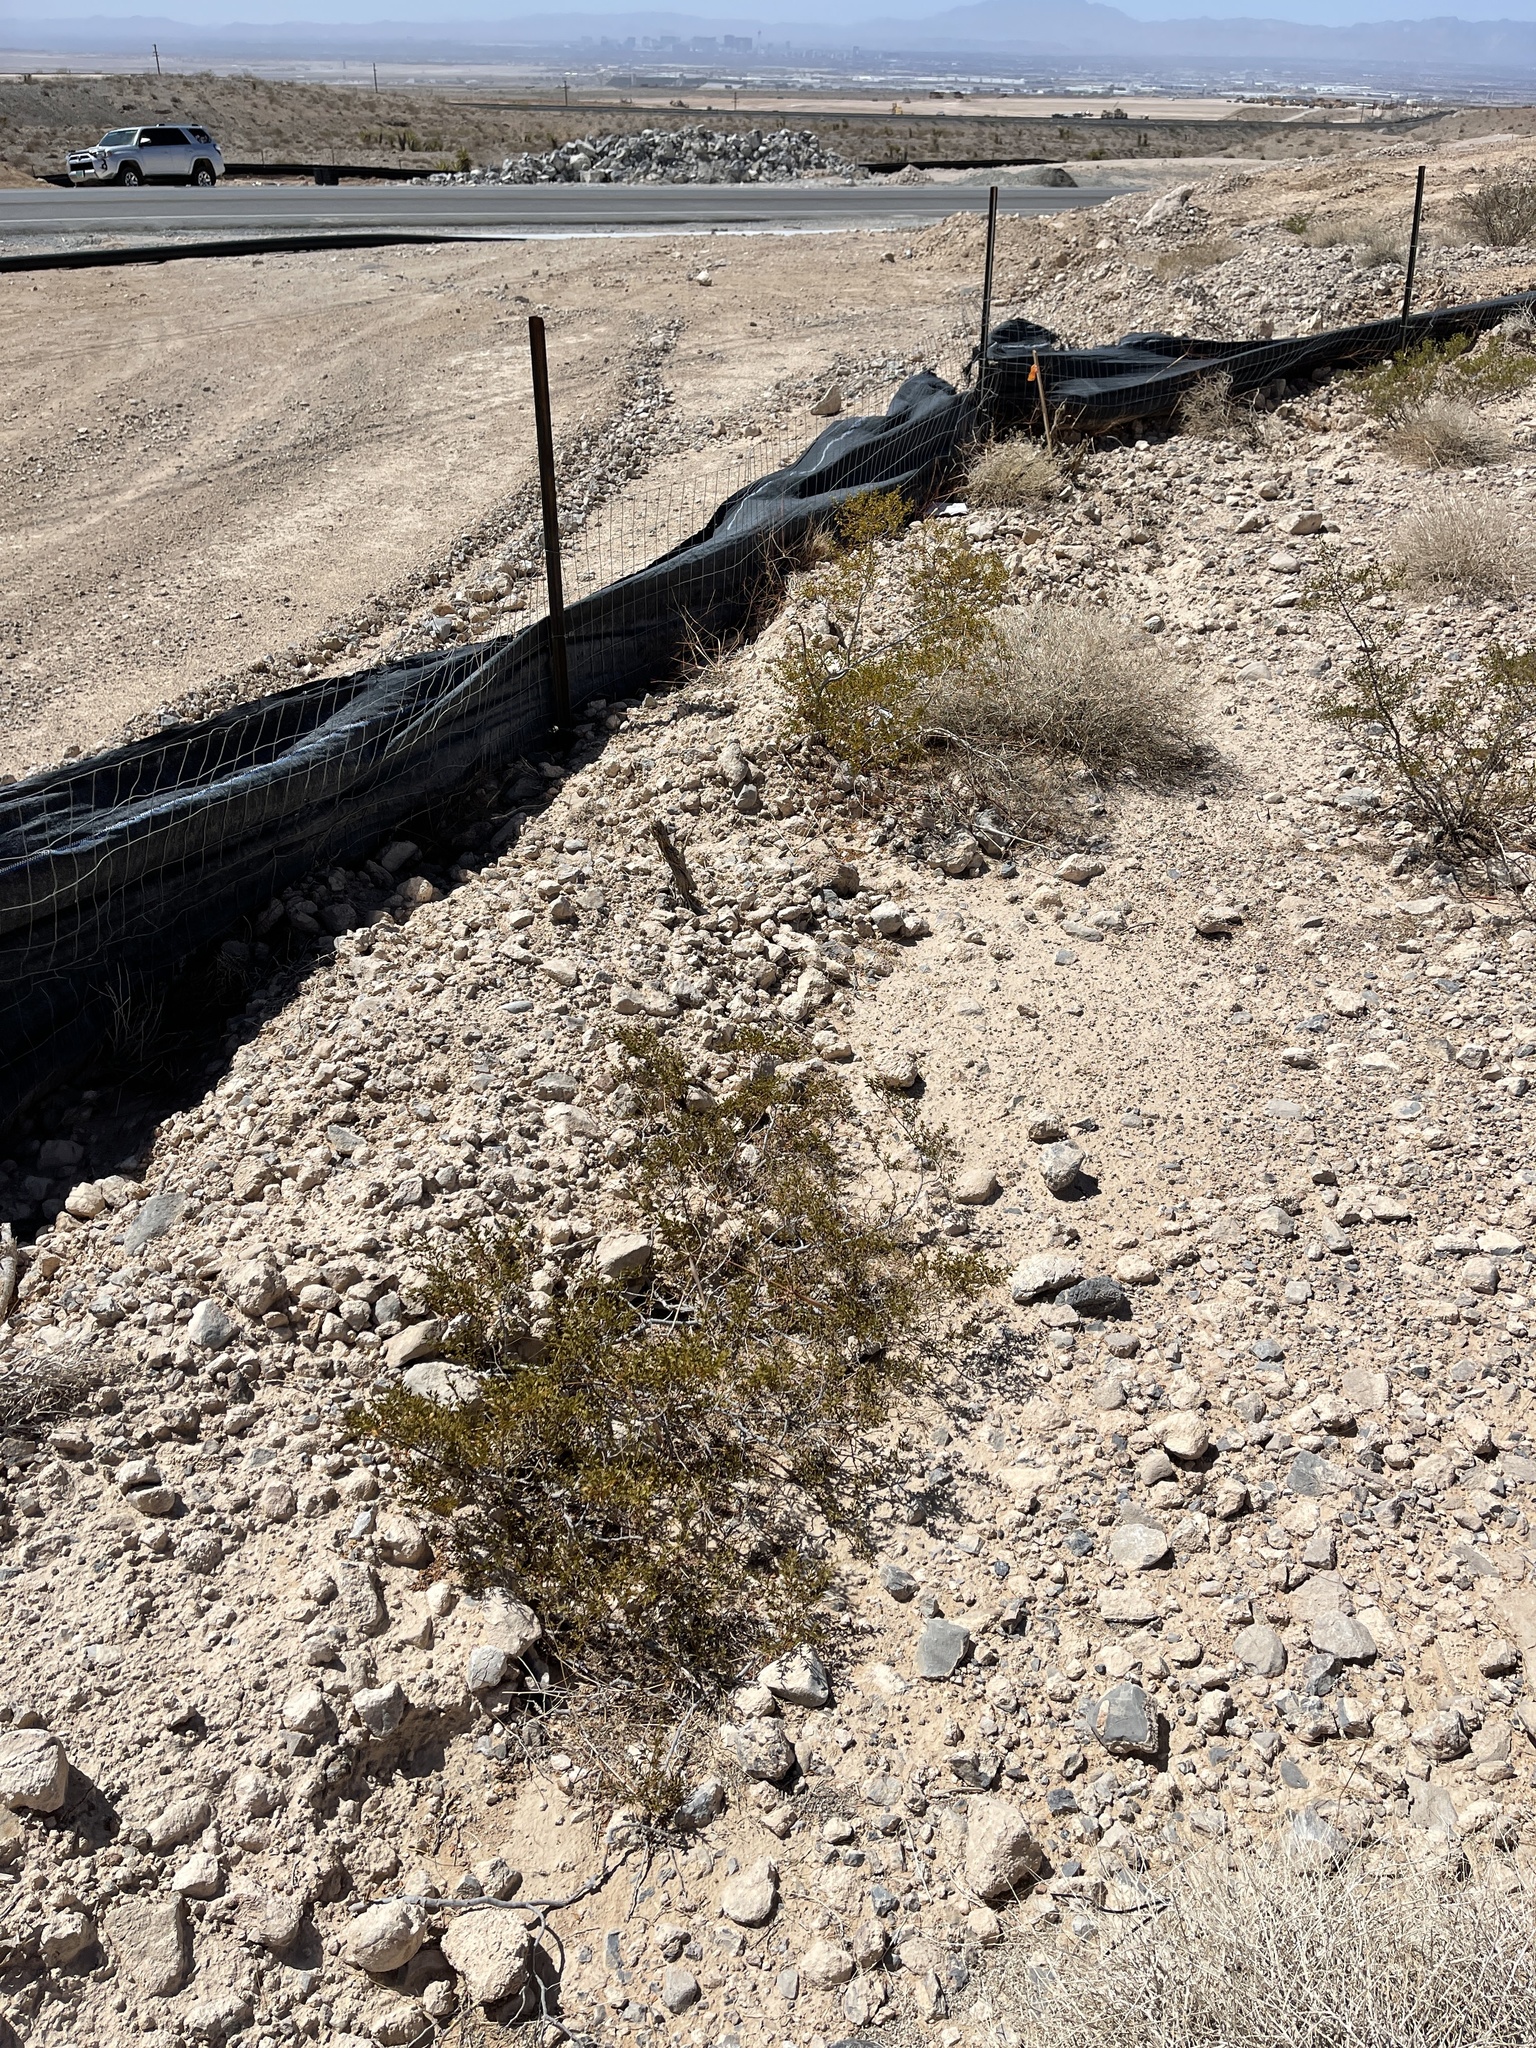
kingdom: Plantae
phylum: Tracheophyta
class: Magnoliopsida
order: Zygophyllales
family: Zygophyllaceae
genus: Larrea
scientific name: Larrea tridentata
